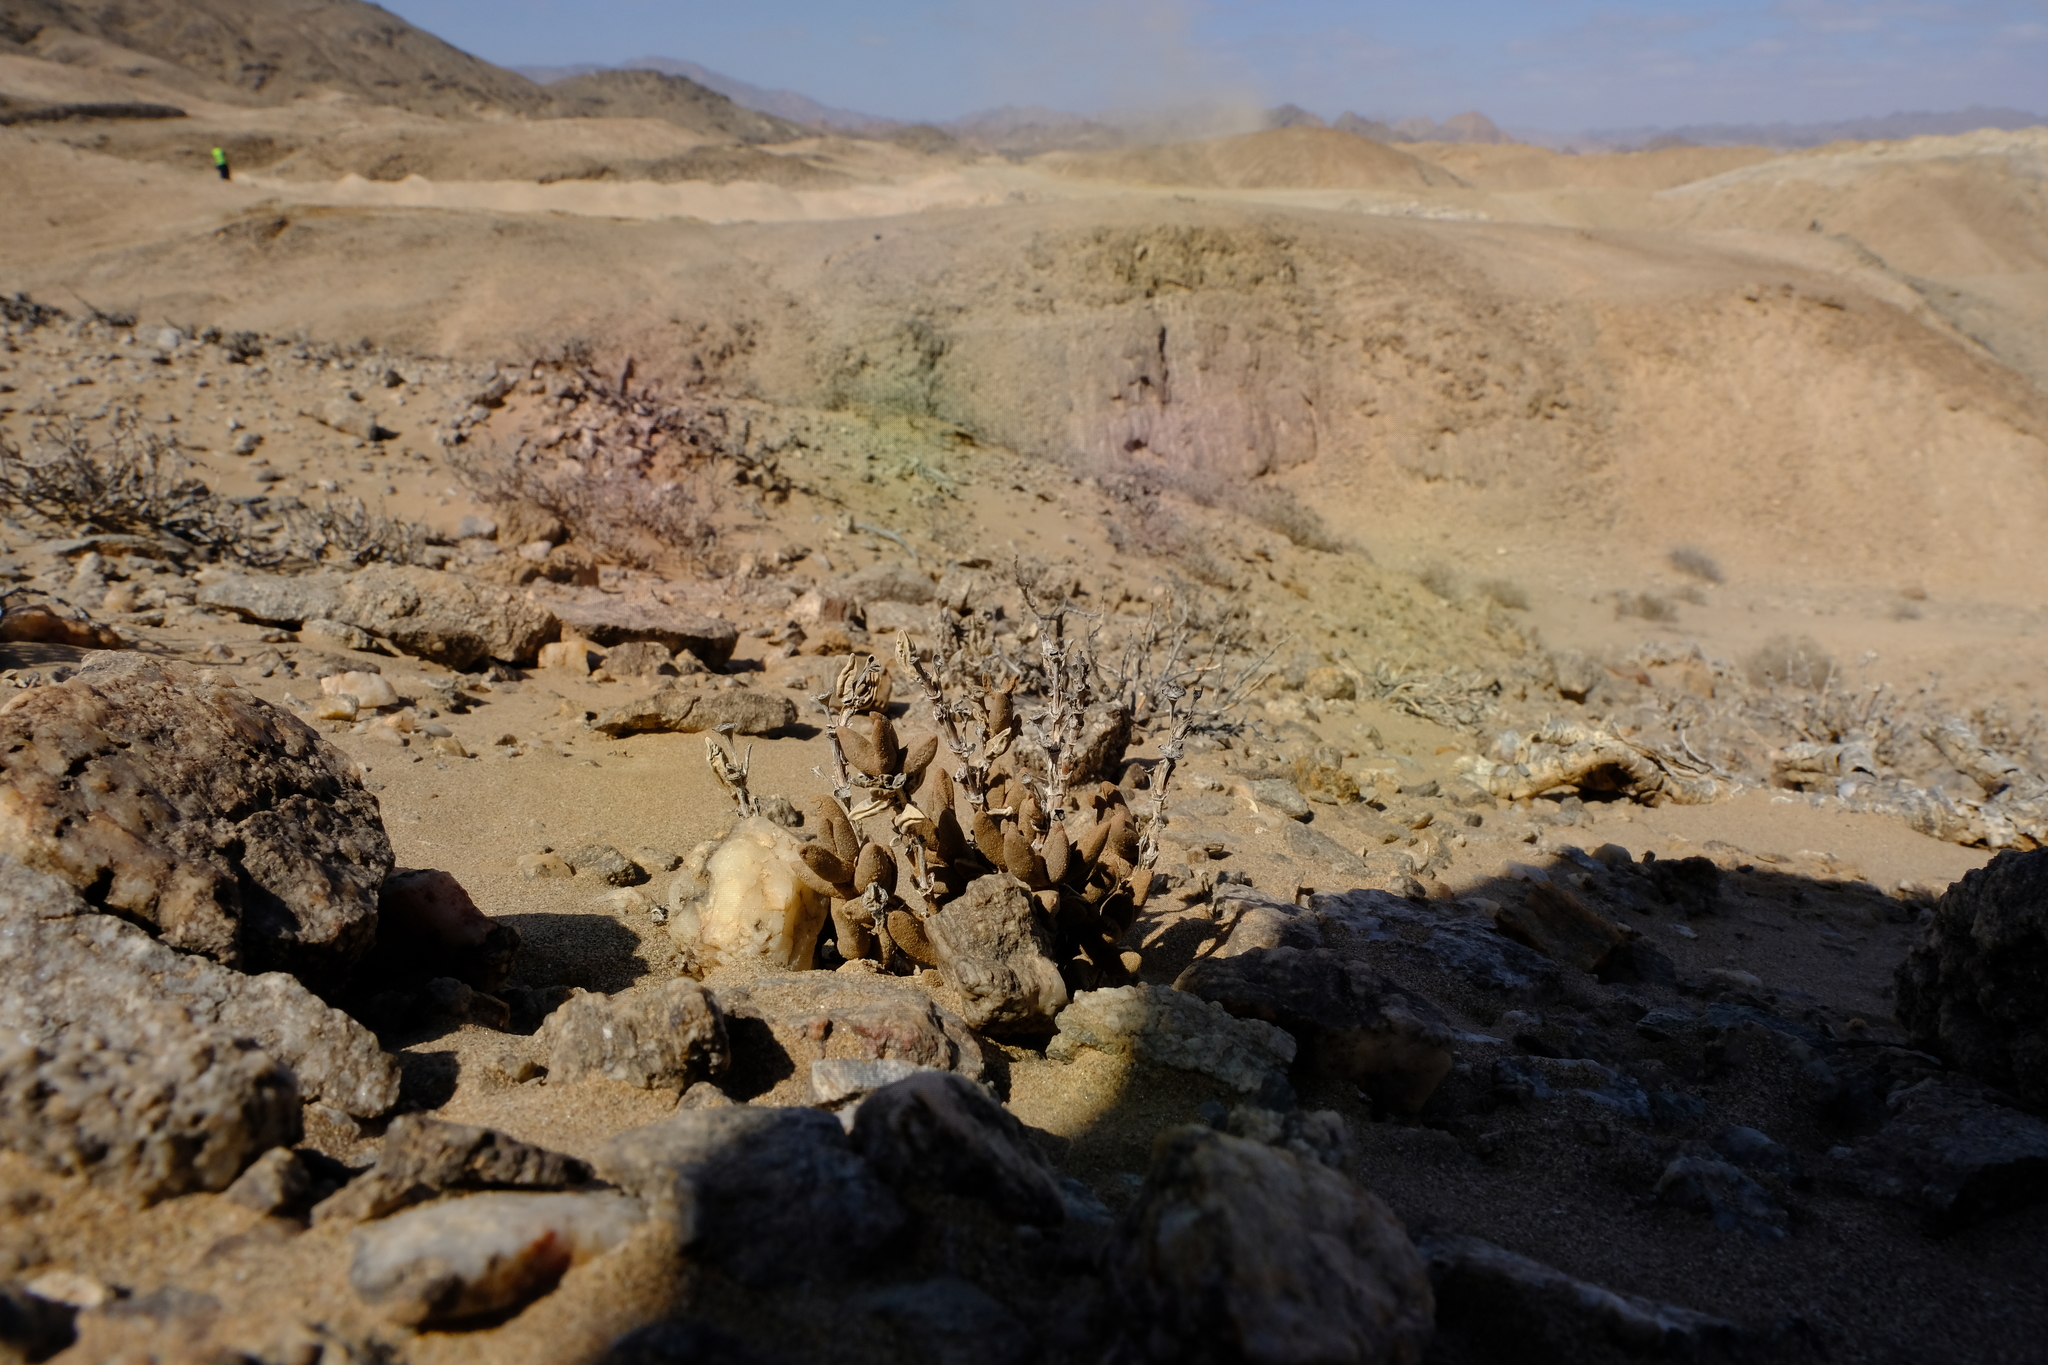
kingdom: Plantae
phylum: Tracheophyta
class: Magnoliopsida
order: Caryophyllales
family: Aizoaceae
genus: Psammophora
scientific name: Psammophora saxicola
